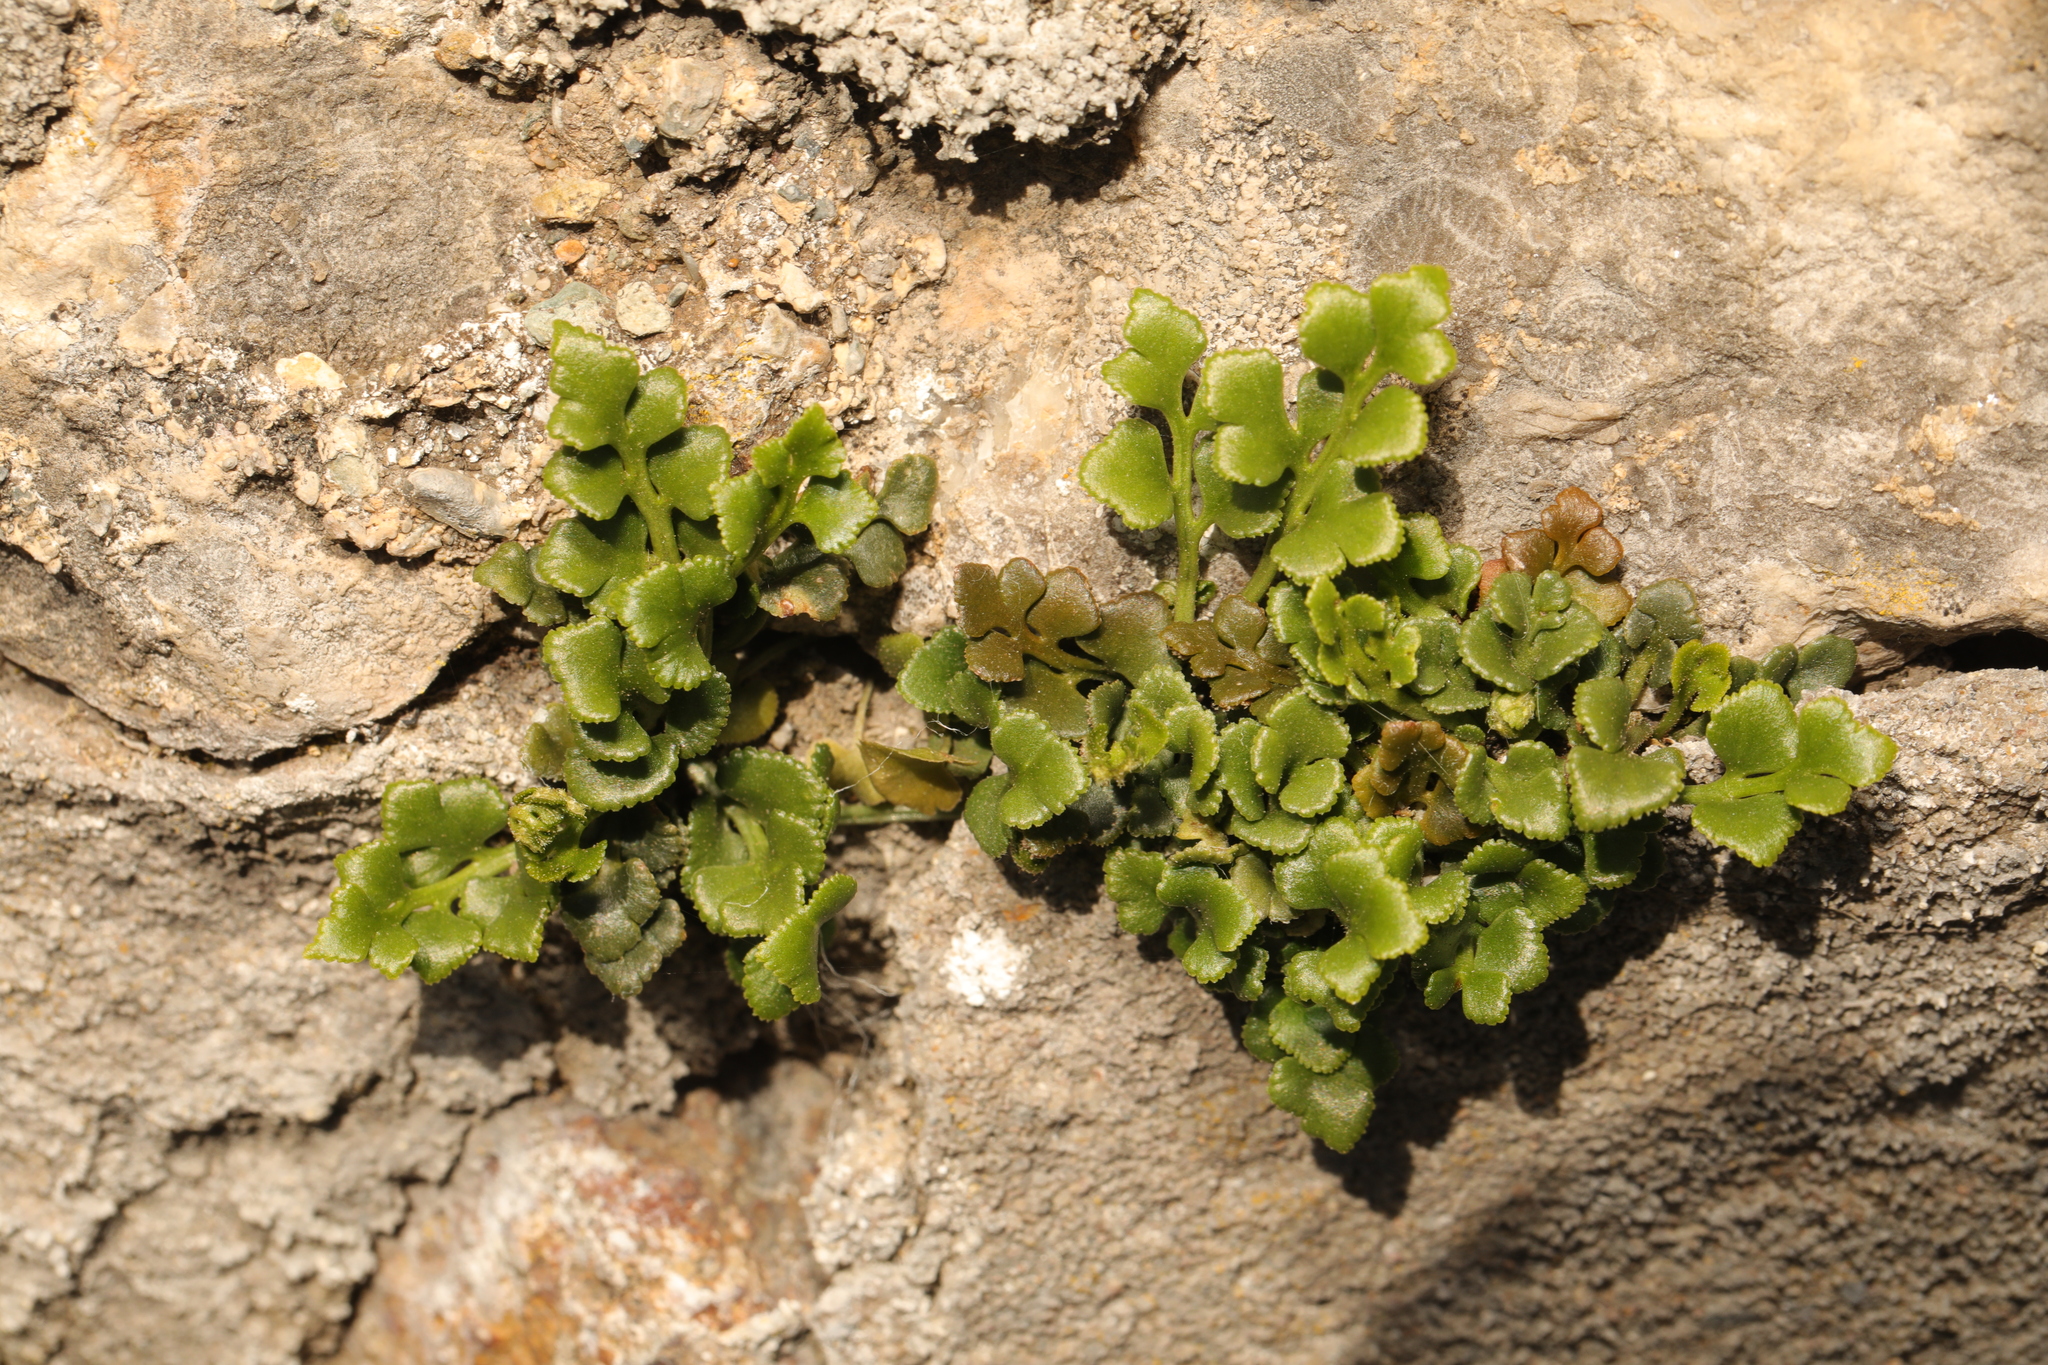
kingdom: Plantae
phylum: Tracheophyta
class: Polypodiopsida
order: Polypodiales
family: Aspleniaceae
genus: Asplenium
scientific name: Asplenium ruta-muraria
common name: Wall-rue
